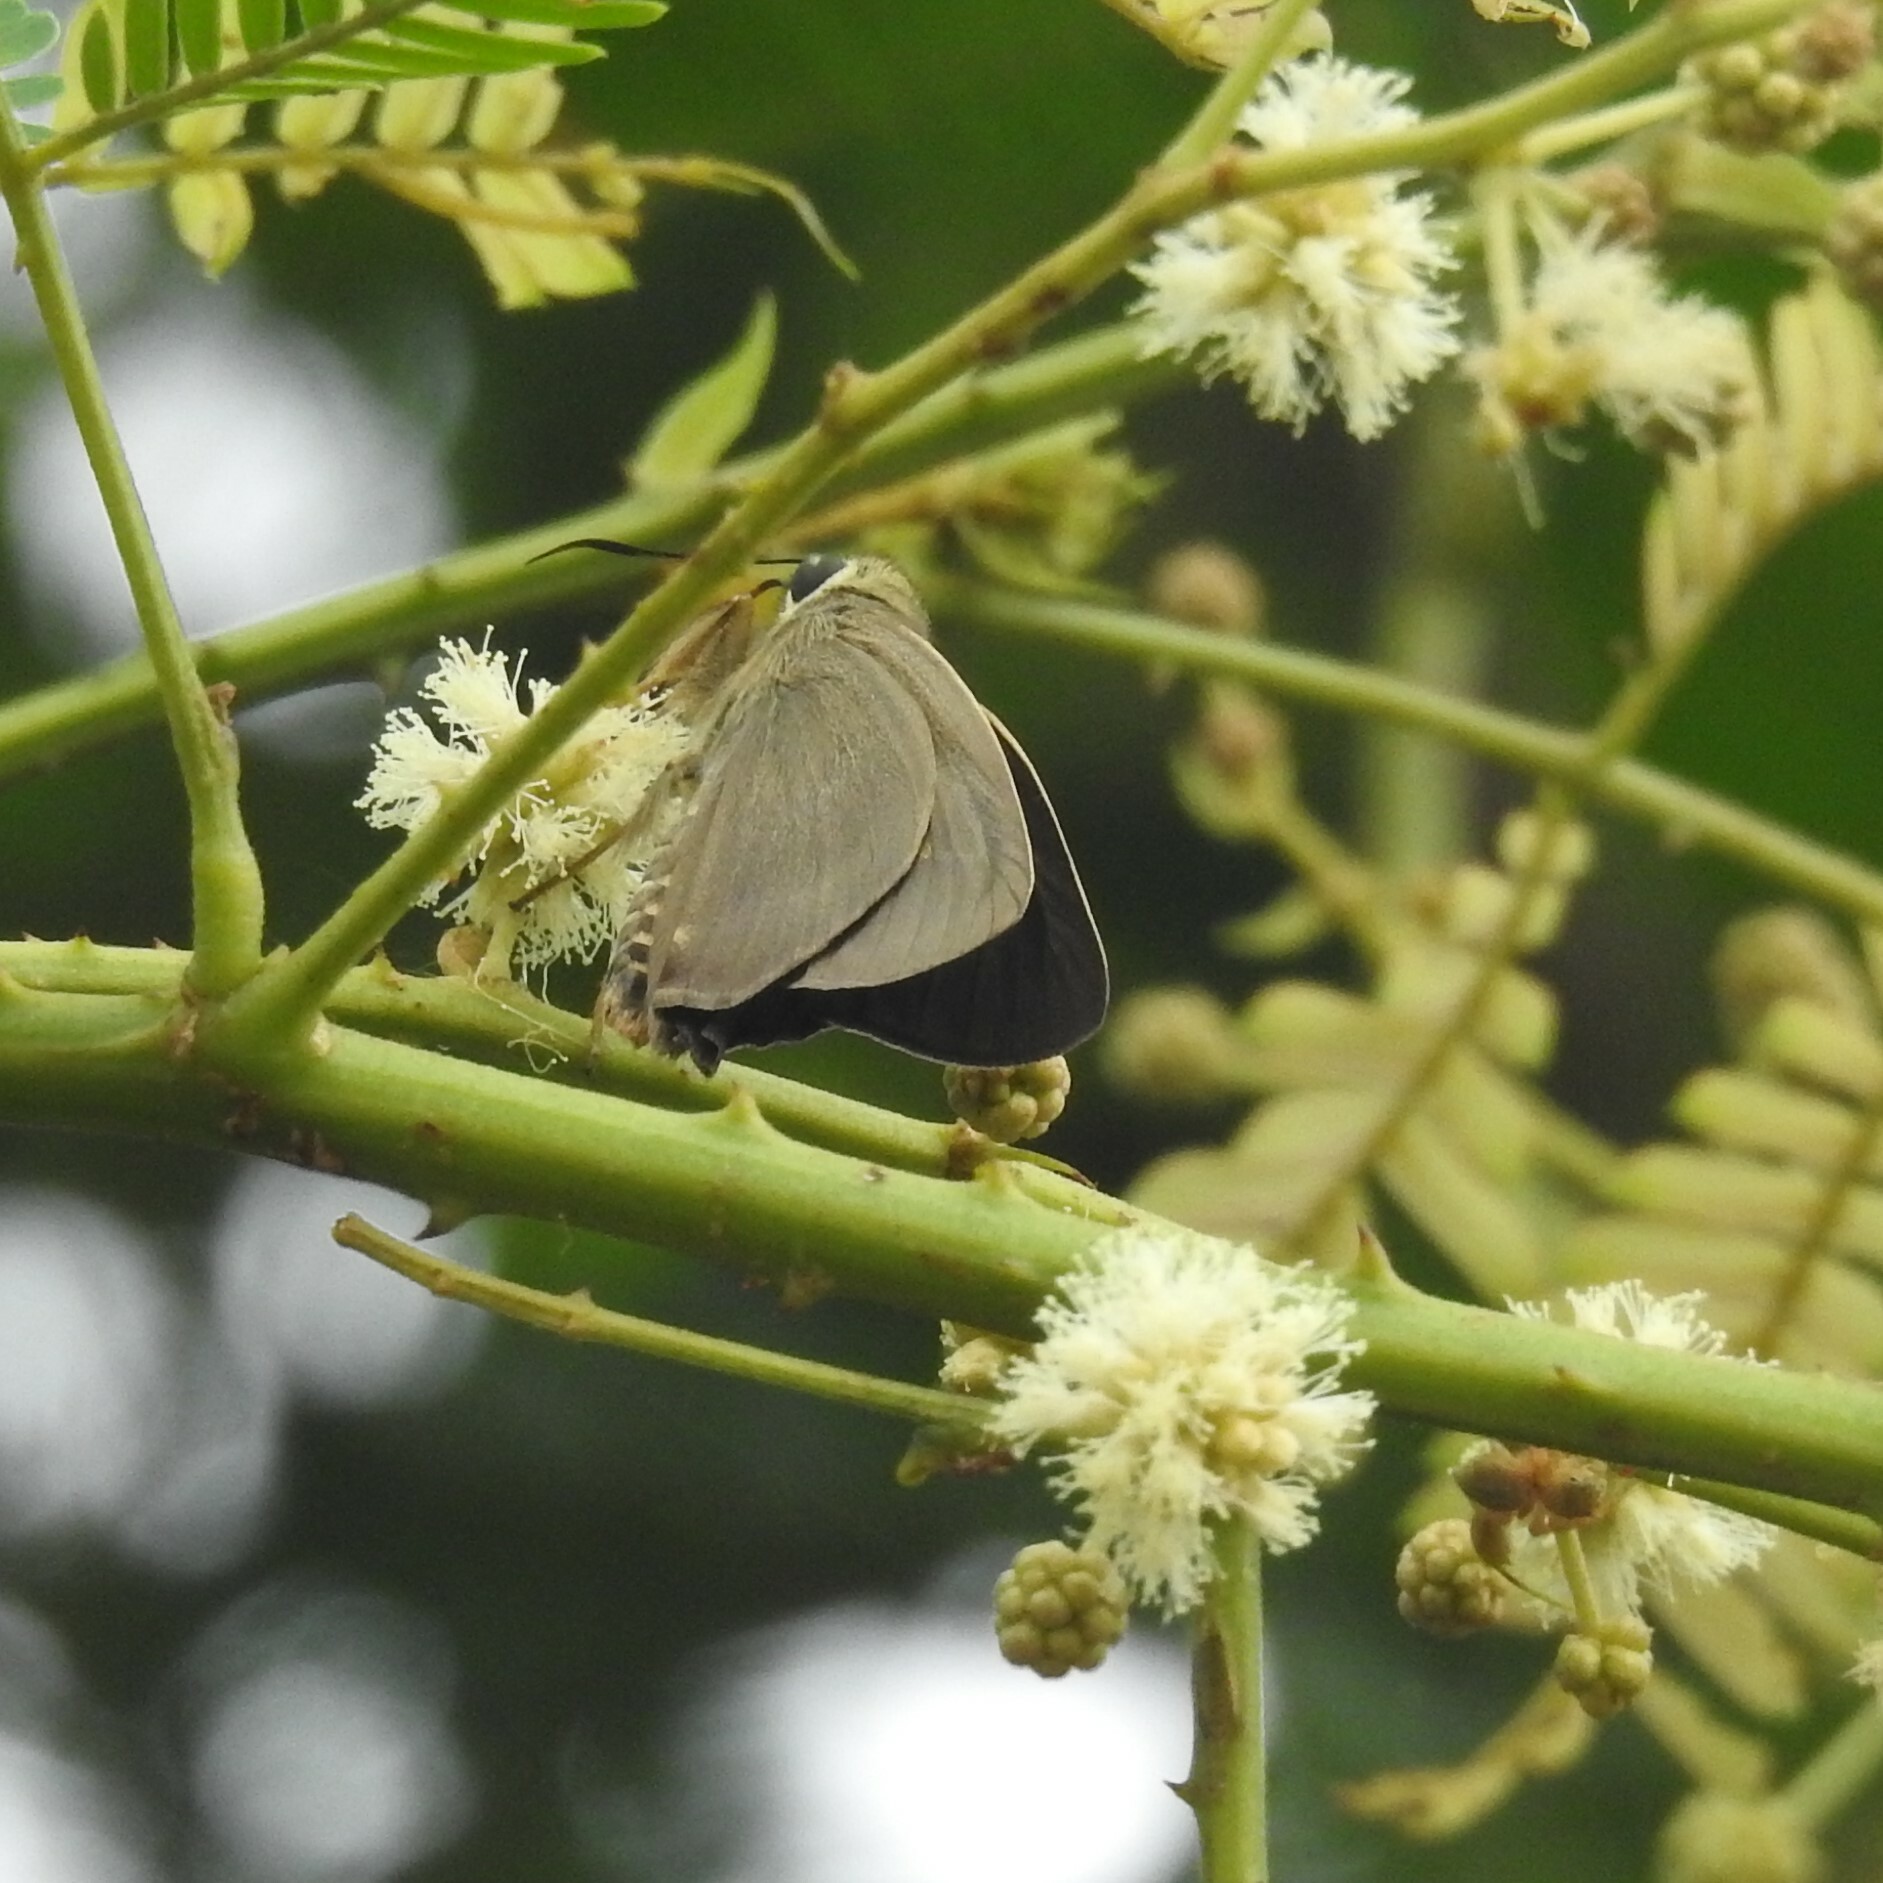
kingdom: Animalia
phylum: Arthropoda
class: Insecta
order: Lepidoptera
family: Hesperiidae
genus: Badamia
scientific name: Badamia exclamationis
